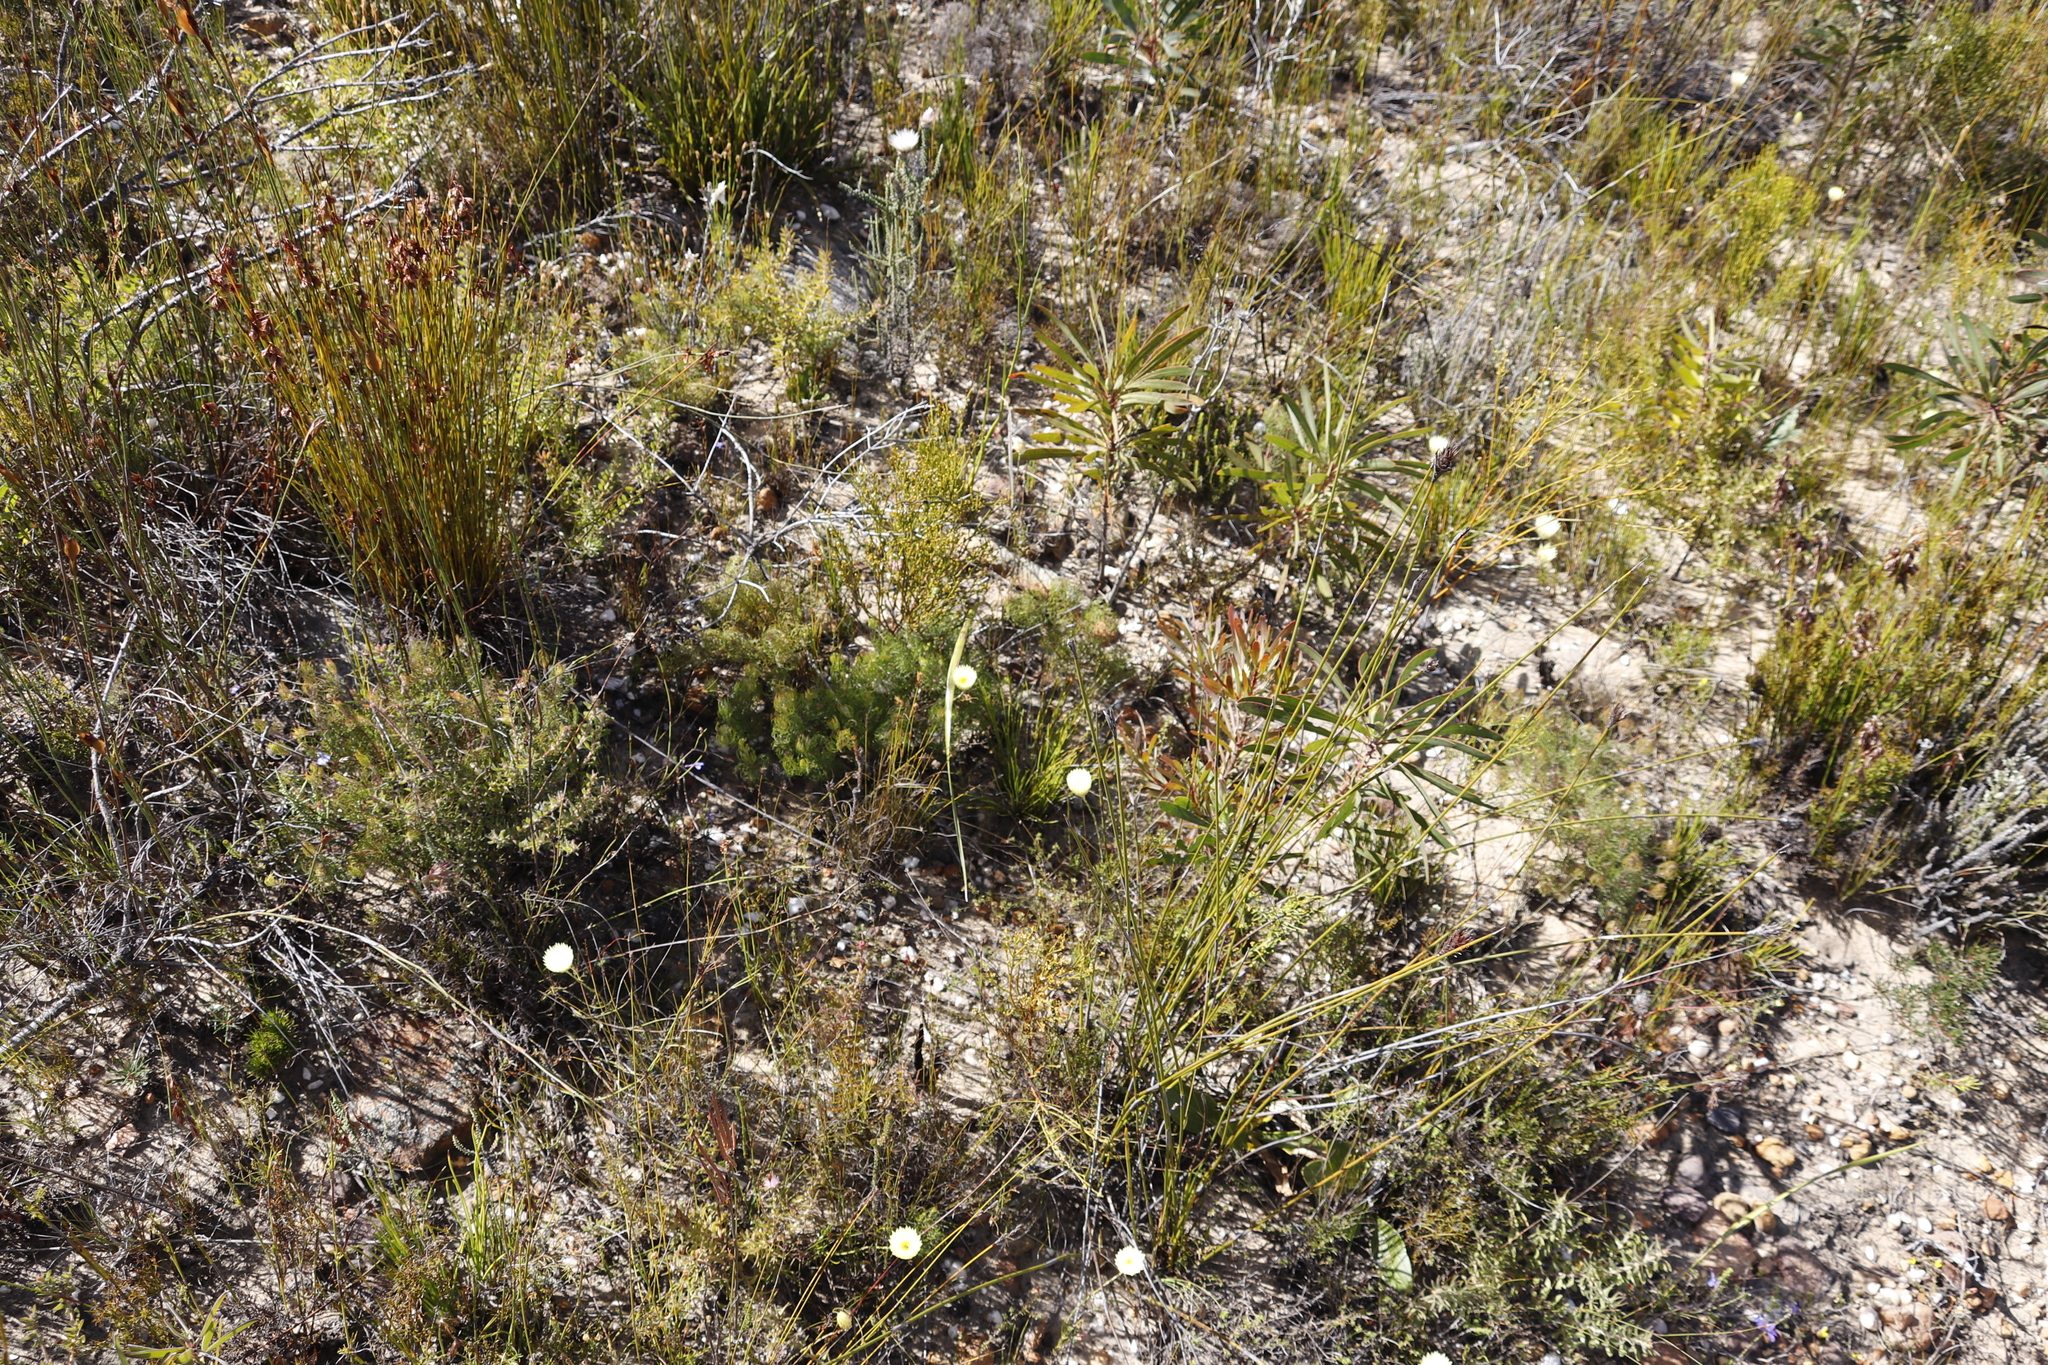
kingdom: Plantae
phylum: Tracheophyta
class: Magnoliopsida
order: Proteales
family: Proteaceae
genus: Serruria
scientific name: Serruria inconspicua
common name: Cryptic spiderhead
